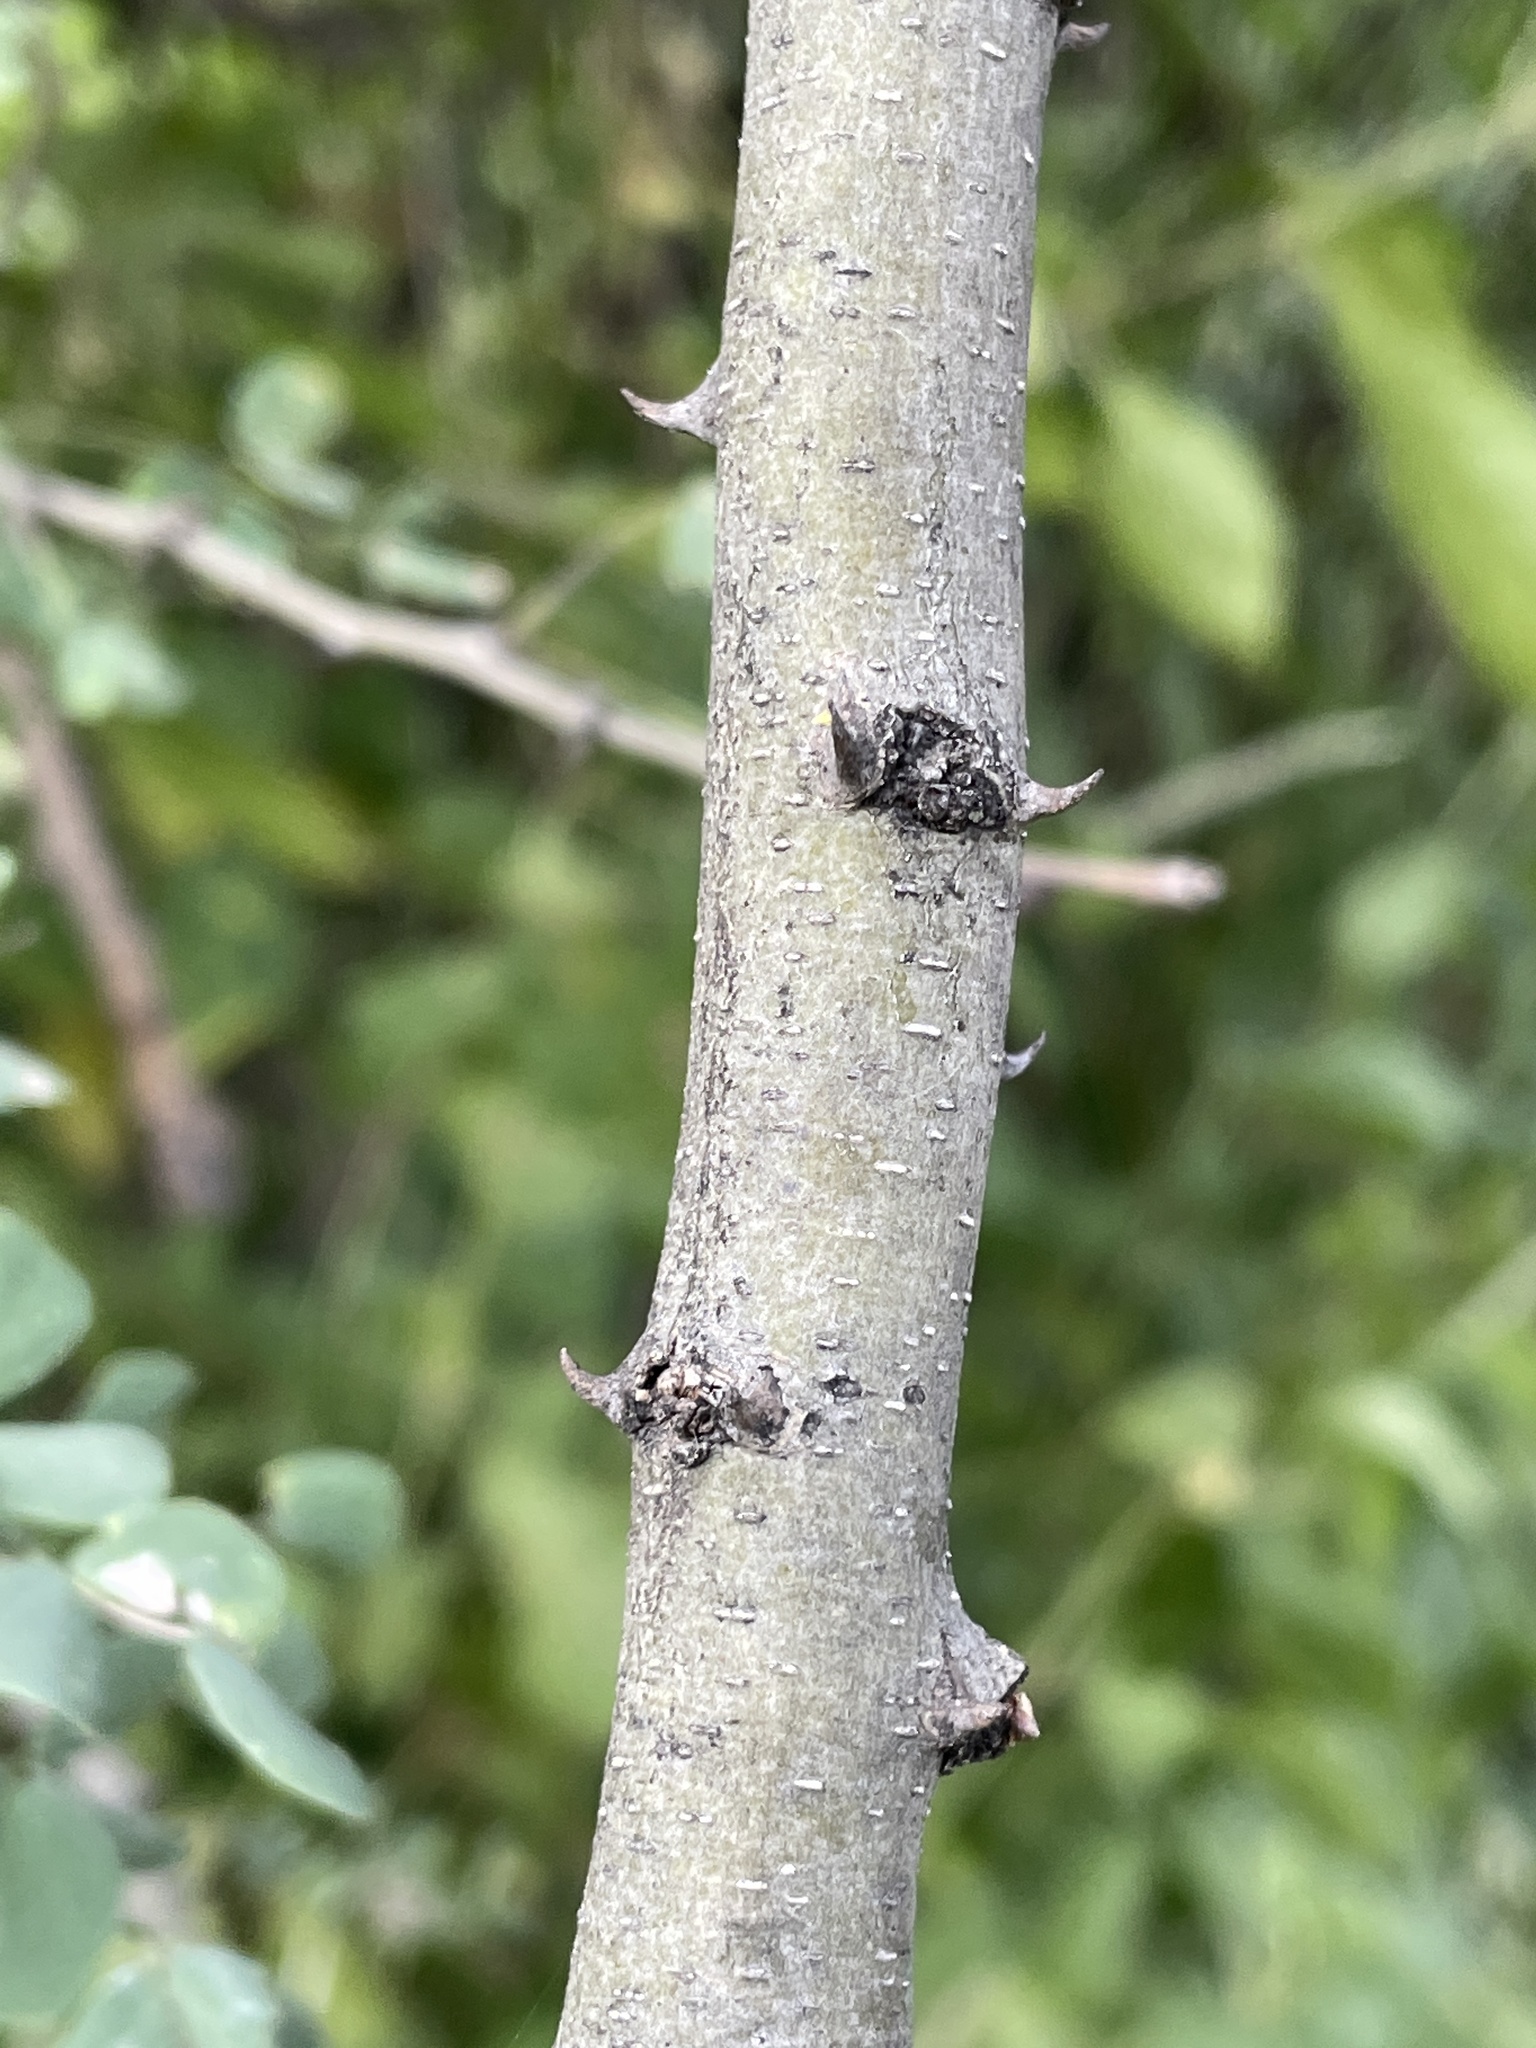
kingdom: Plantae
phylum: Tracheophyta
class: Magnoliopsida
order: Fabales
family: Fabaceae
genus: Senegalia
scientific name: Senegalia nigrescens
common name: Knobthorn
